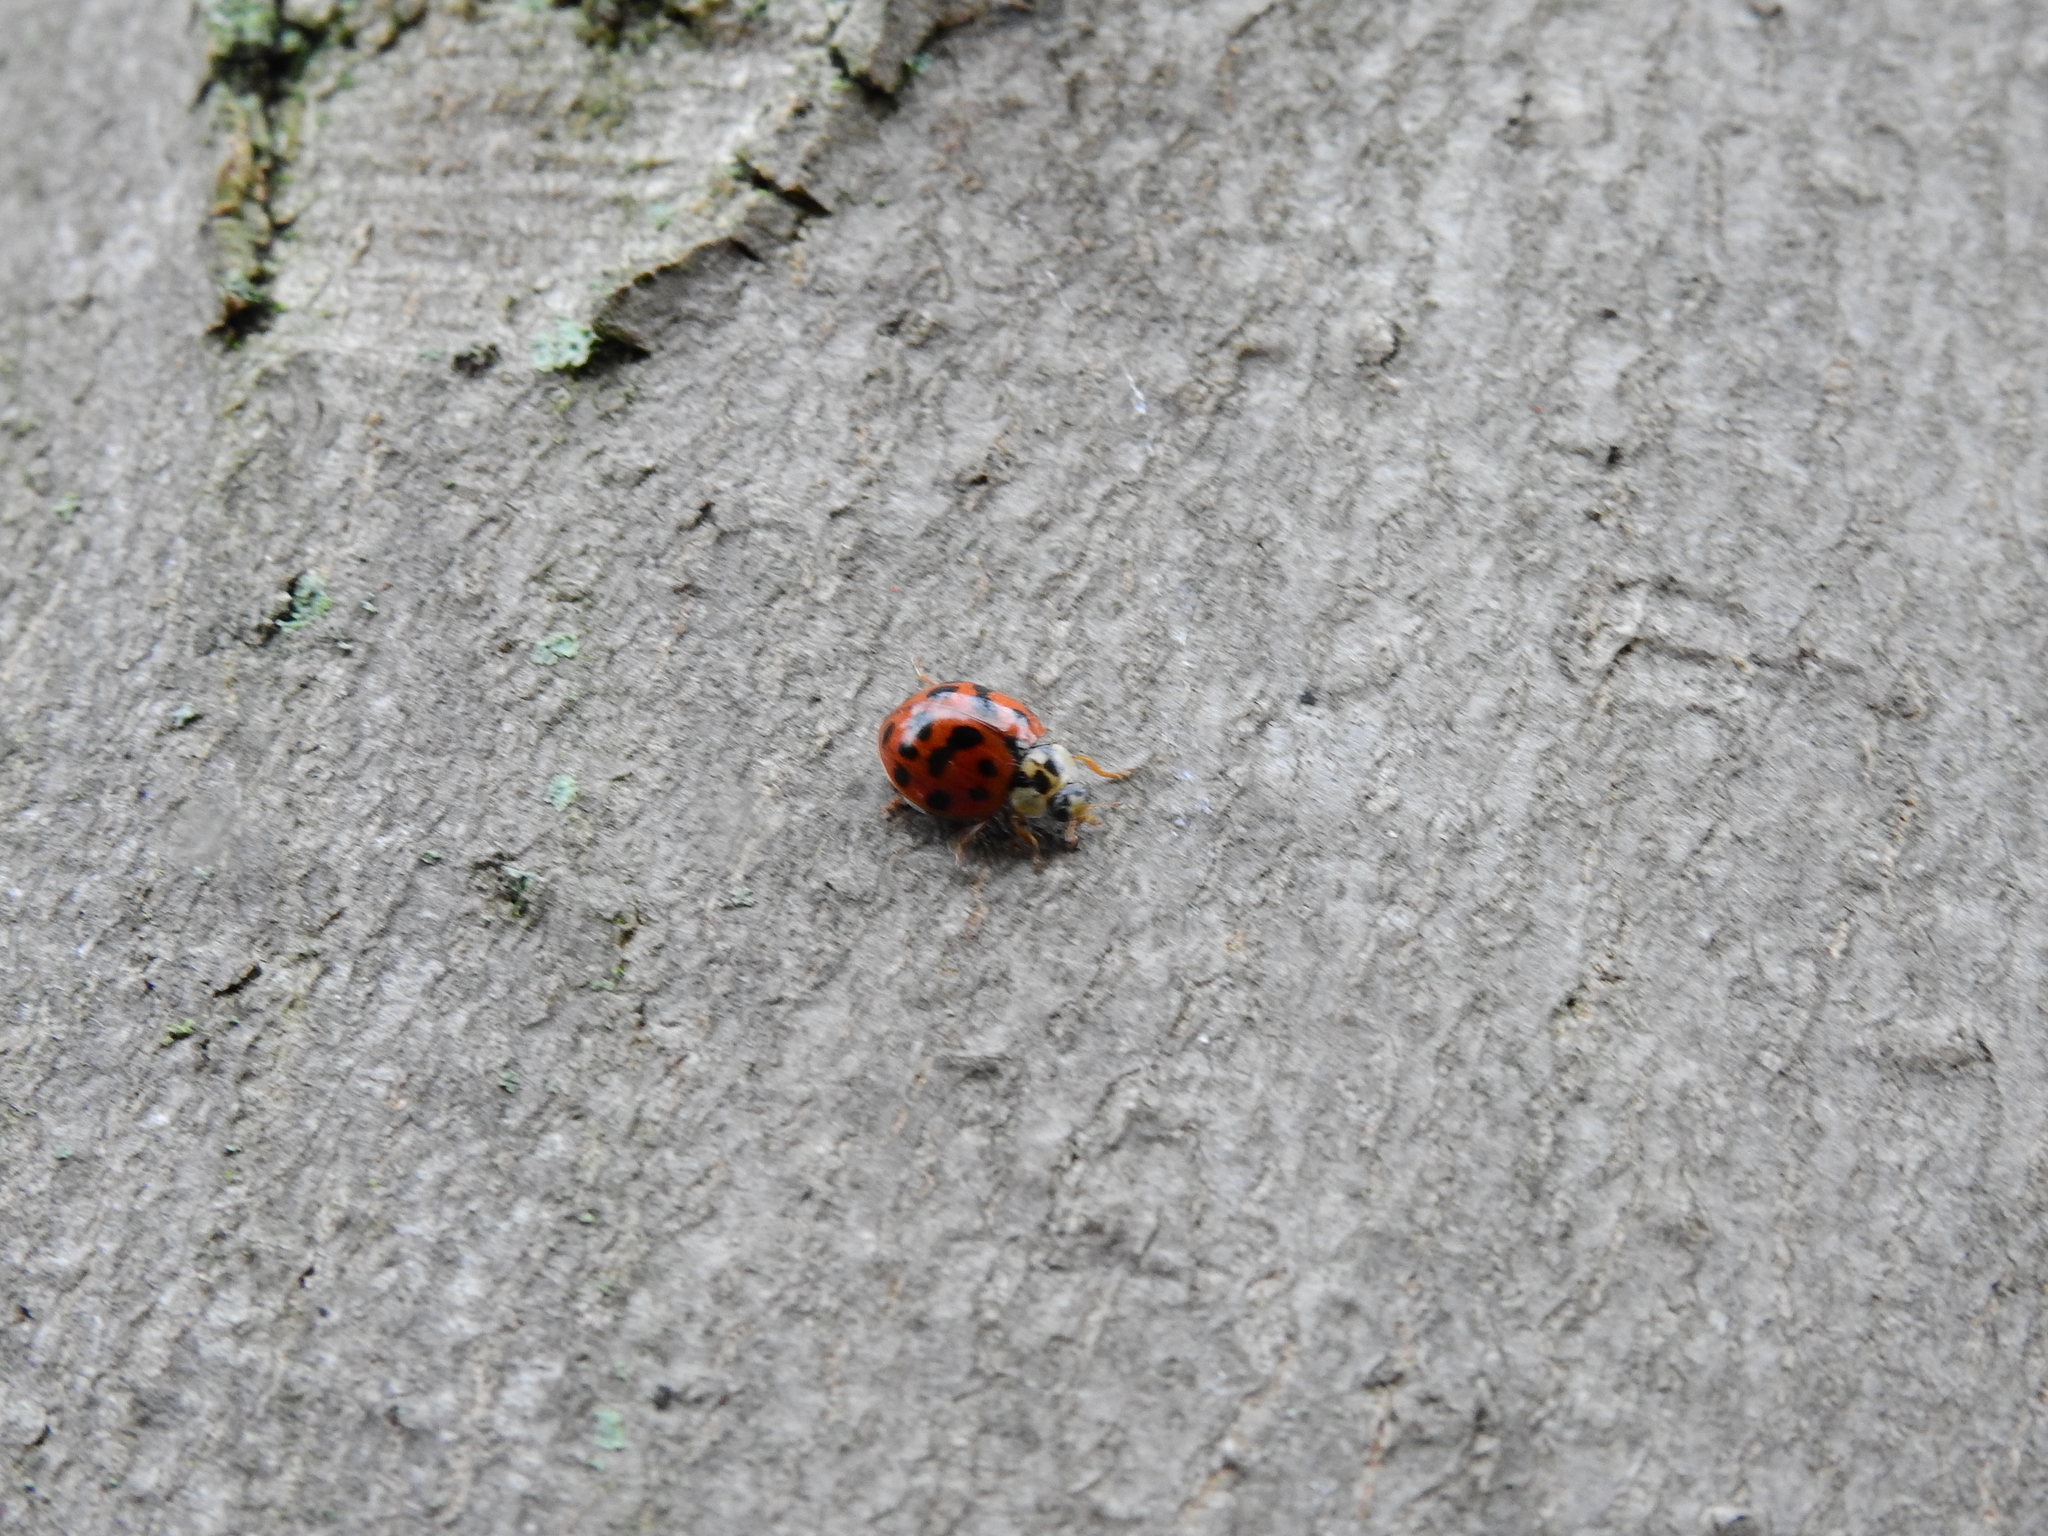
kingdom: Animalia
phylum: Arthropoda
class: Insecta
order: Coleoptera
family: Coccinellidae
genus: Harmonia
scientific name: Harmonia axyridis
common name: Harlequin ladybird
